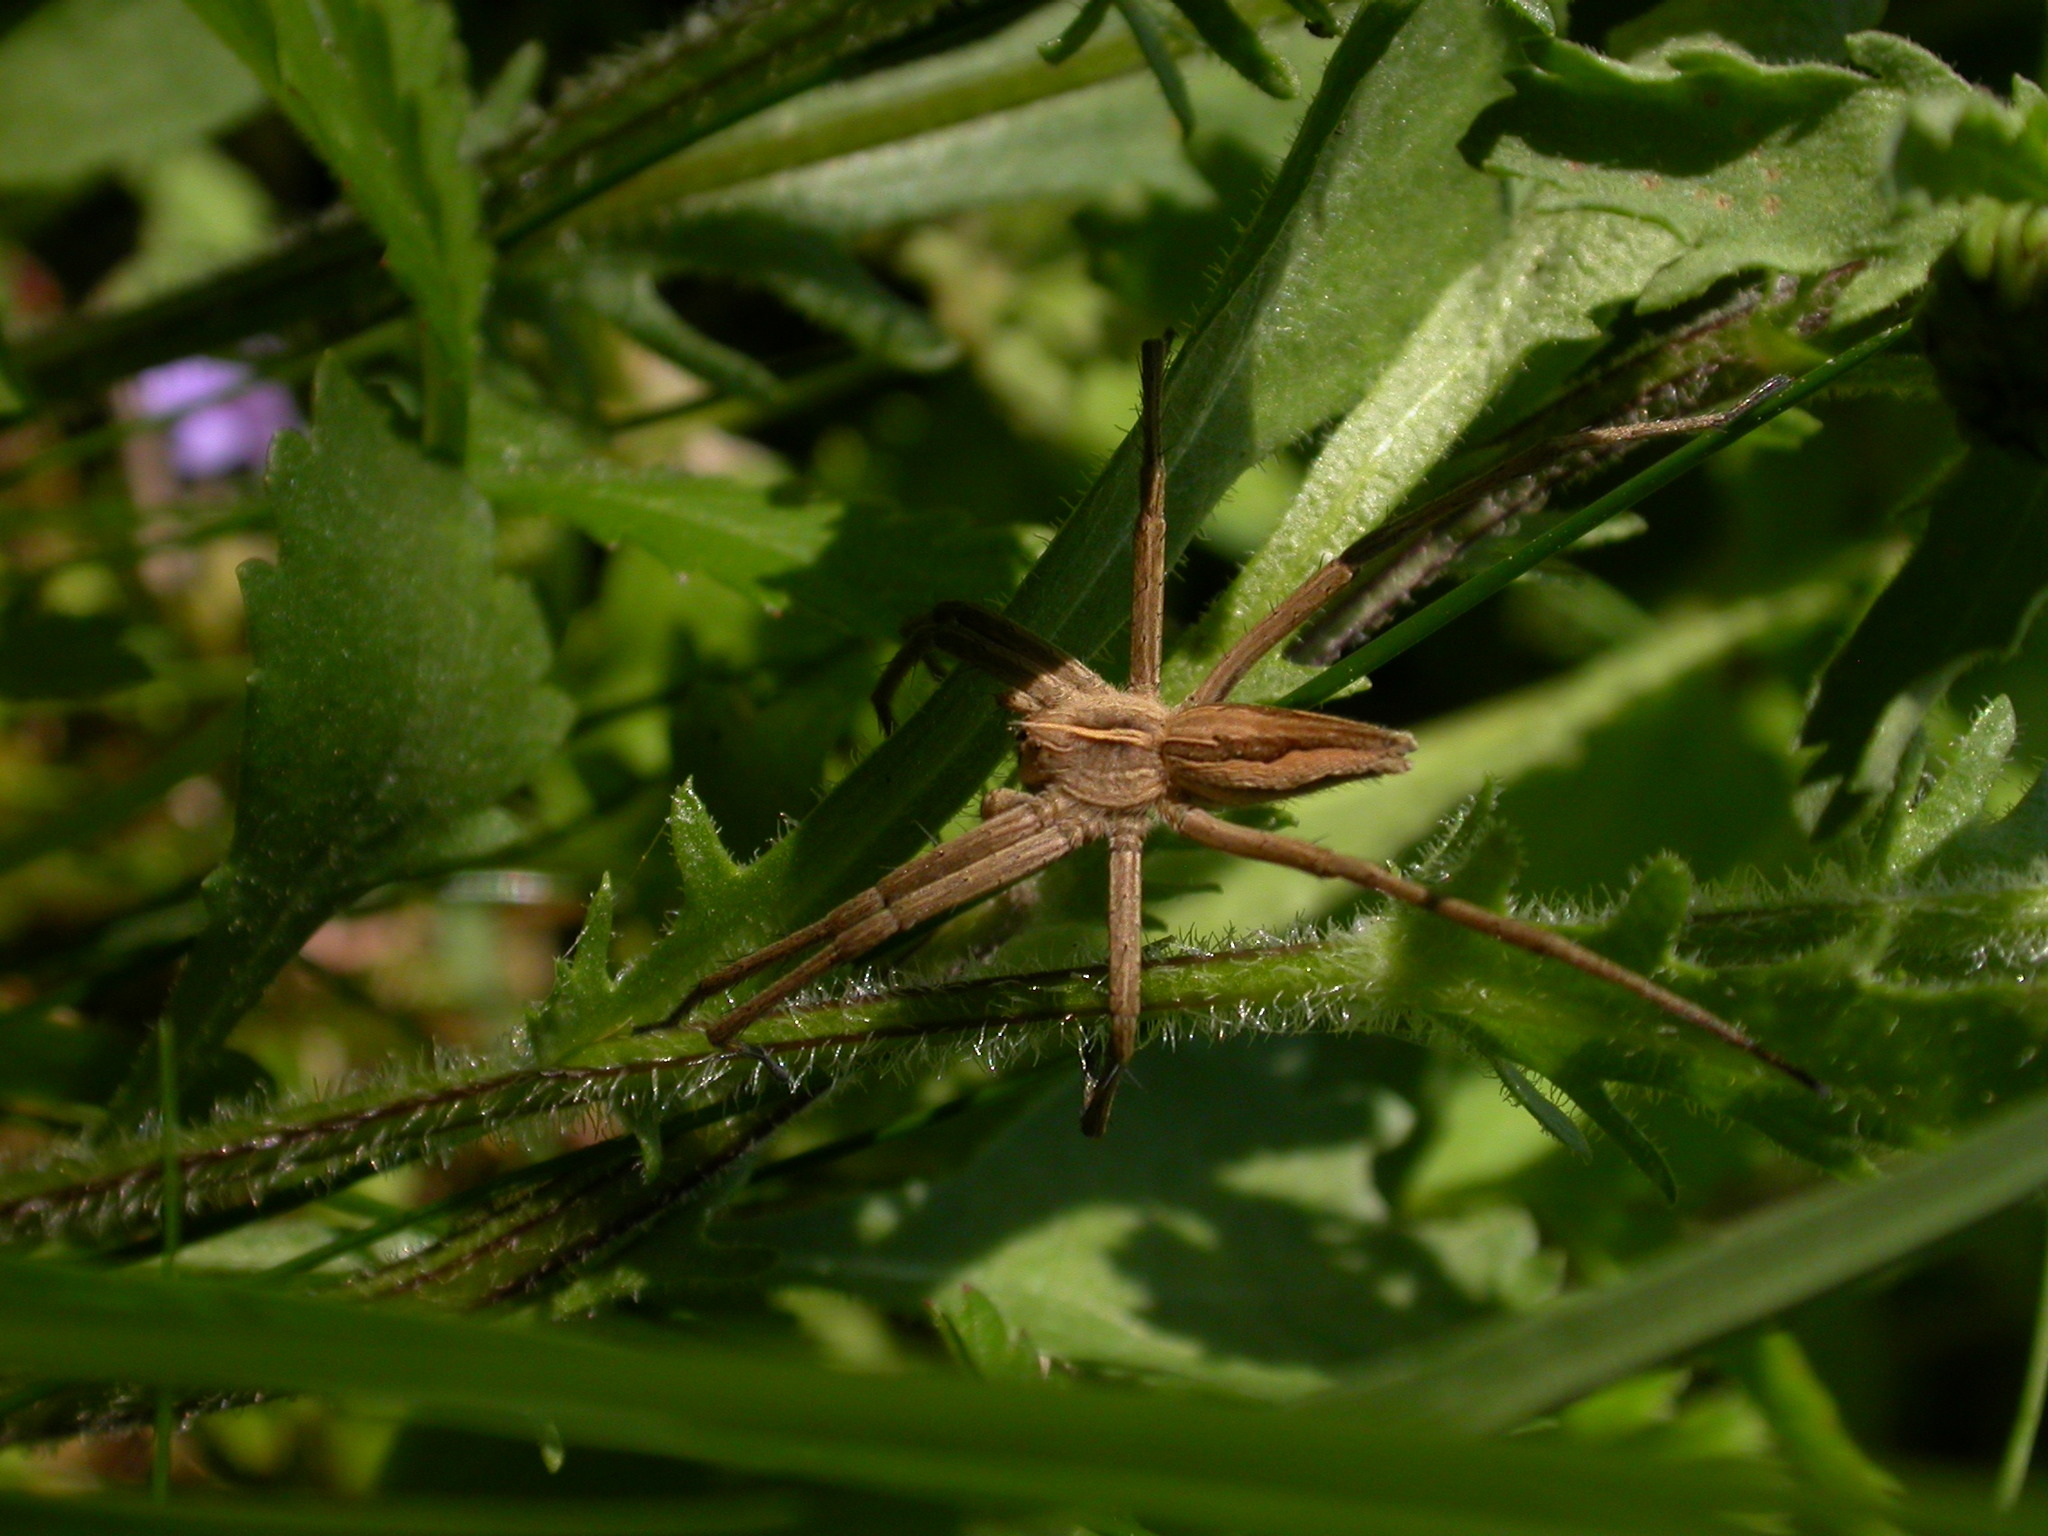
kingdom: Animalia
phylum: Arthropoda
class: Arachnida
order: Araneae
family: Pisauridae
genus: Pisaura
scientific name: Pisaura mirabilis
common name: Tent spider
